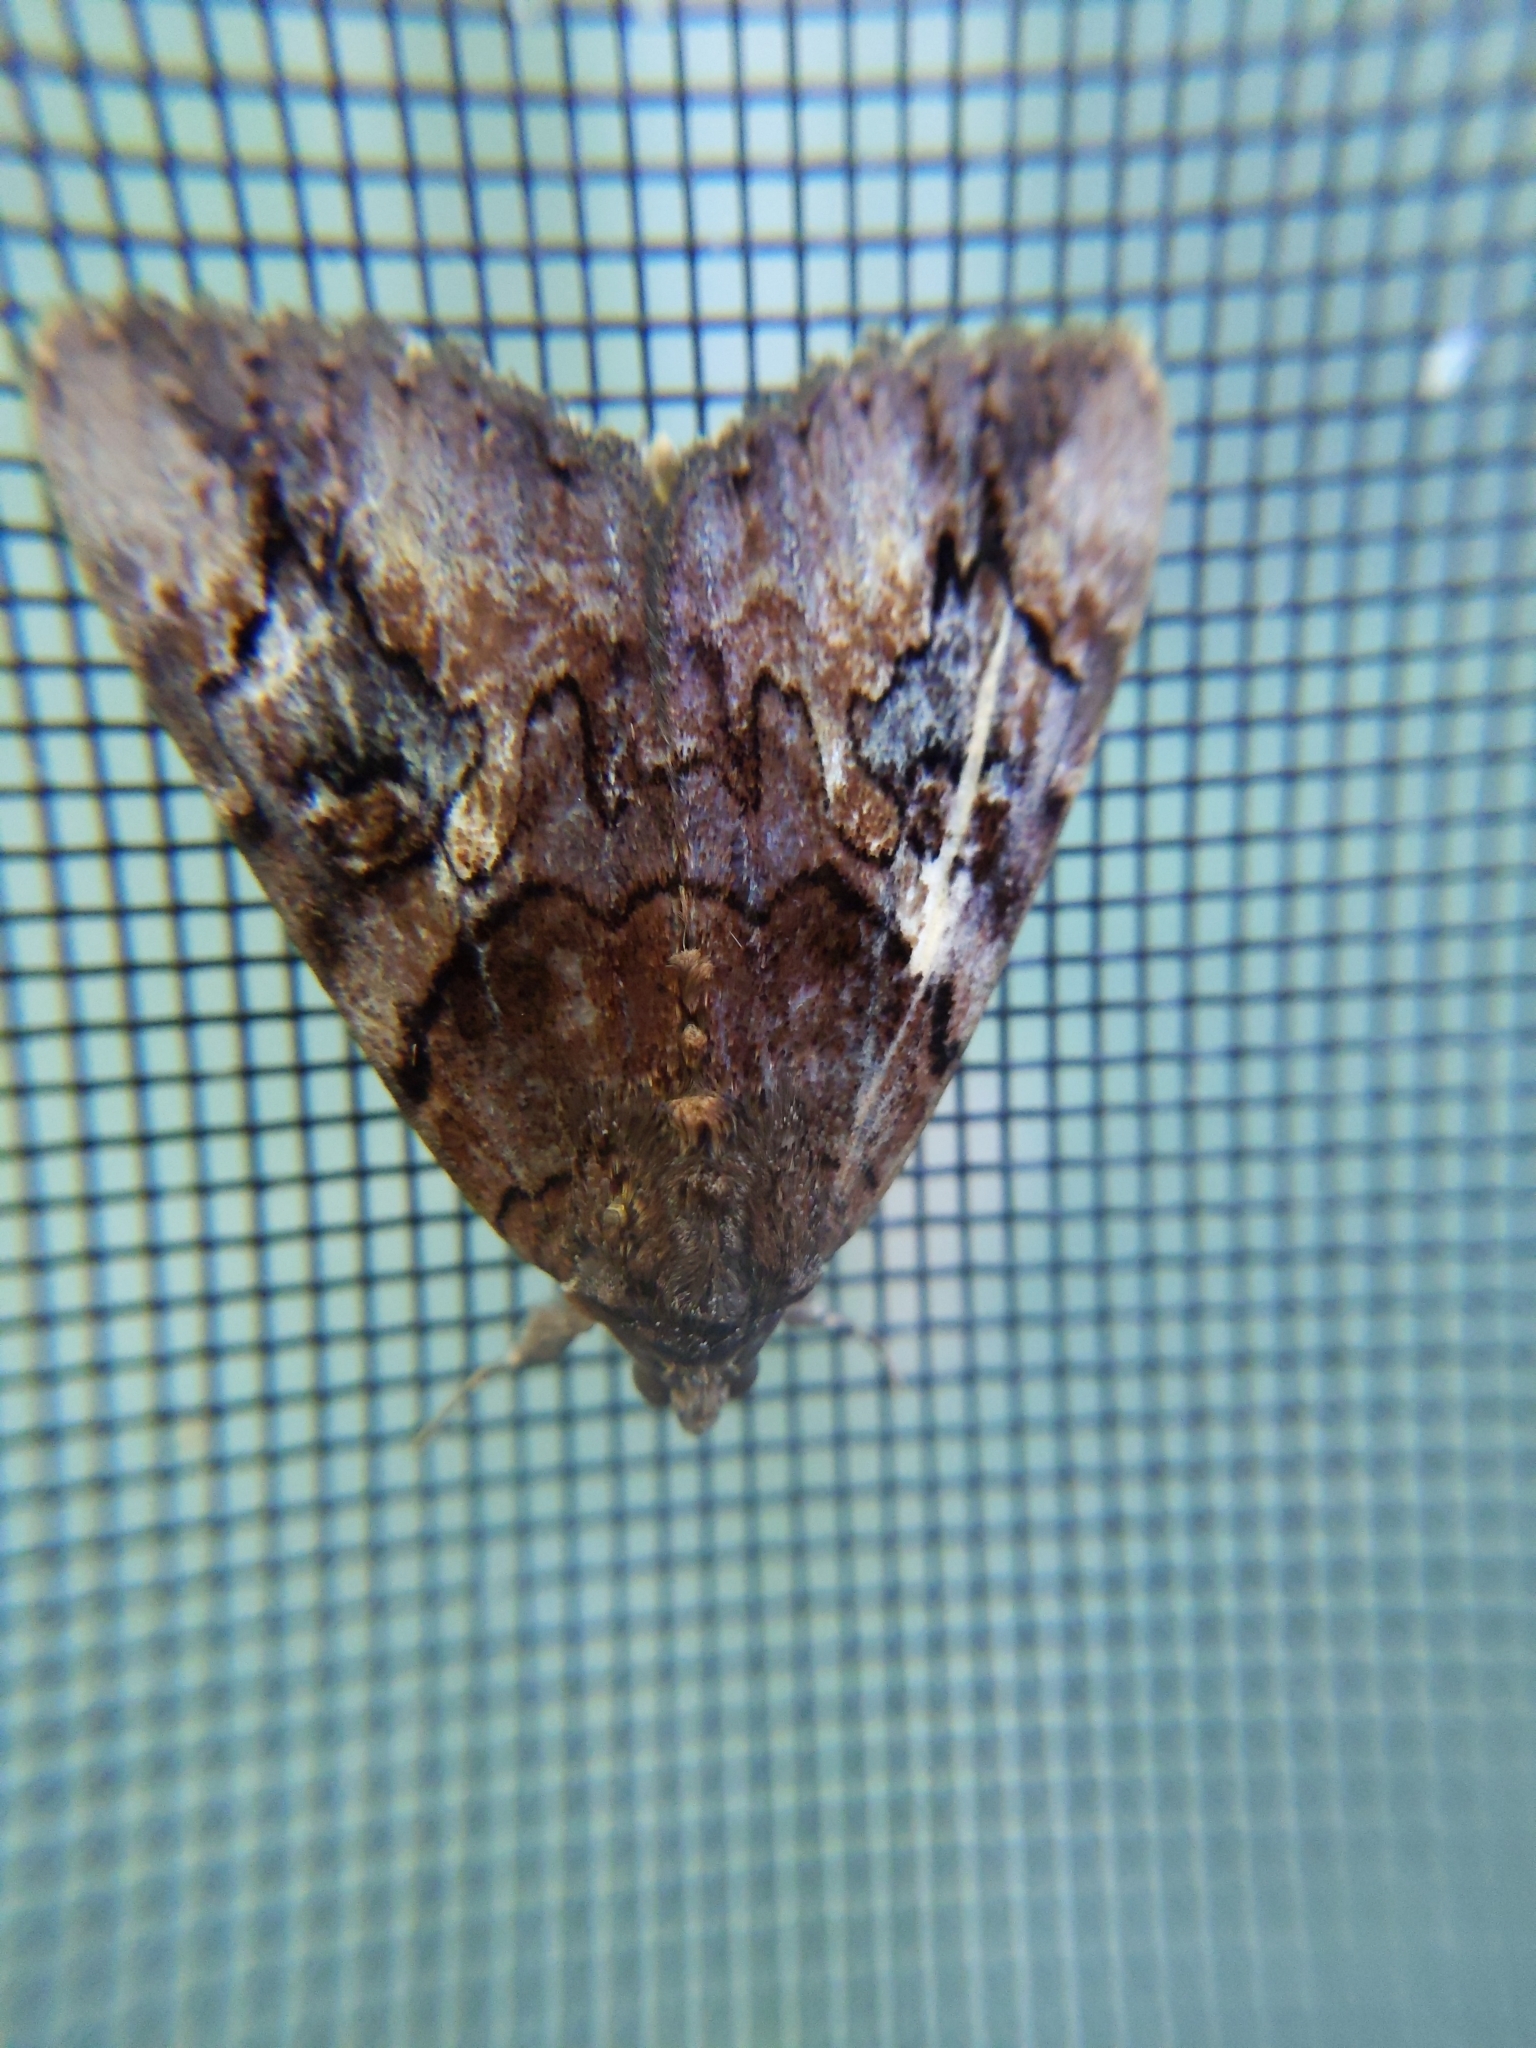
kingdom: Animalia
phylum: Arthropoda
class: Insecta
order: Lepidoptera
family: Erebidae
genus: Catocala
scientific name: Catocala muliercula
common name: The little wife underwing
